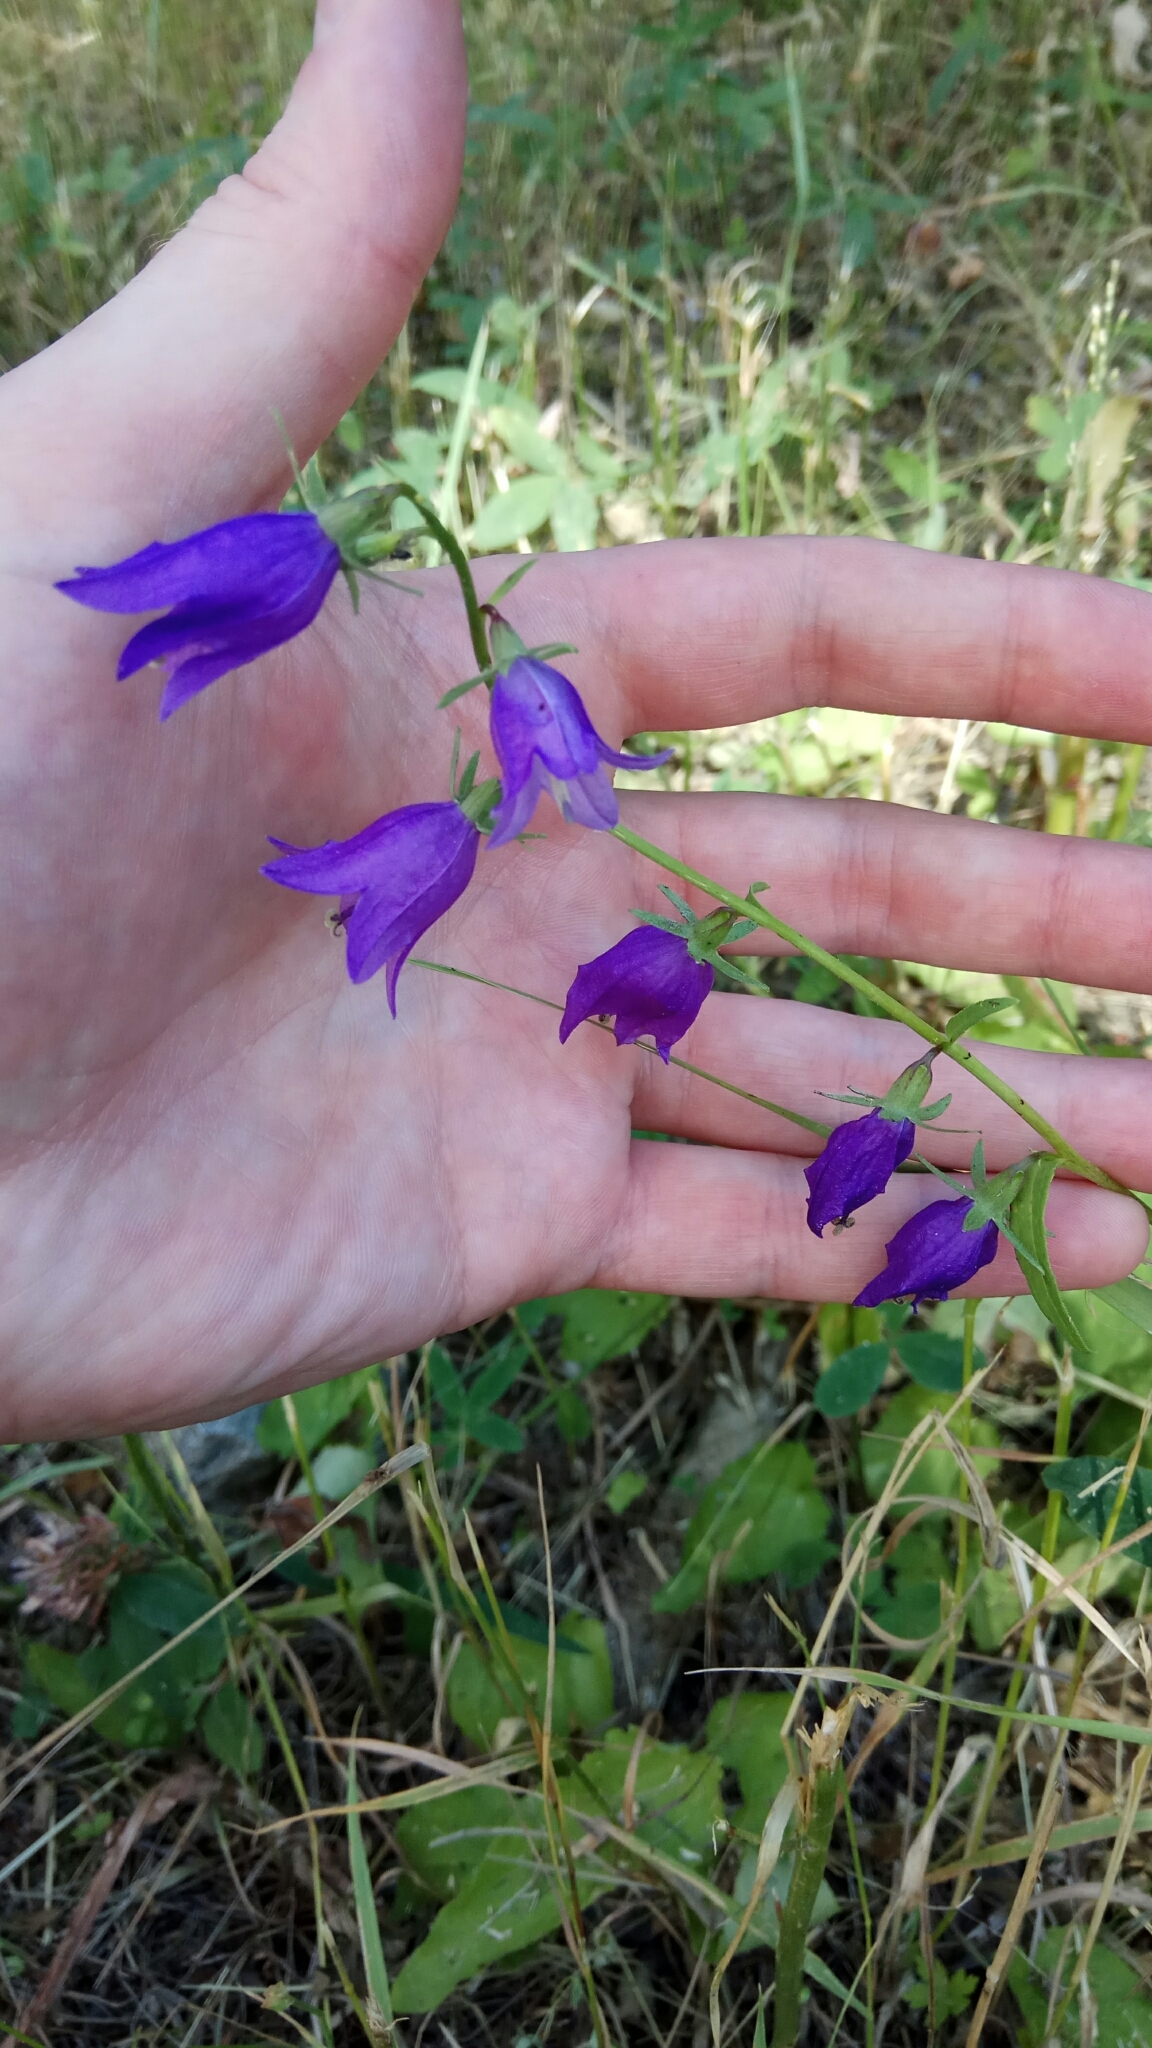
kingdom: Plantae
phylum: Tracheophyta
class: Magnoliopsida
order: Asterales
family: Campanulaceae
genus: Campanula
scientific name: Campanula rapunculoides
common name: Creeping bellflower
